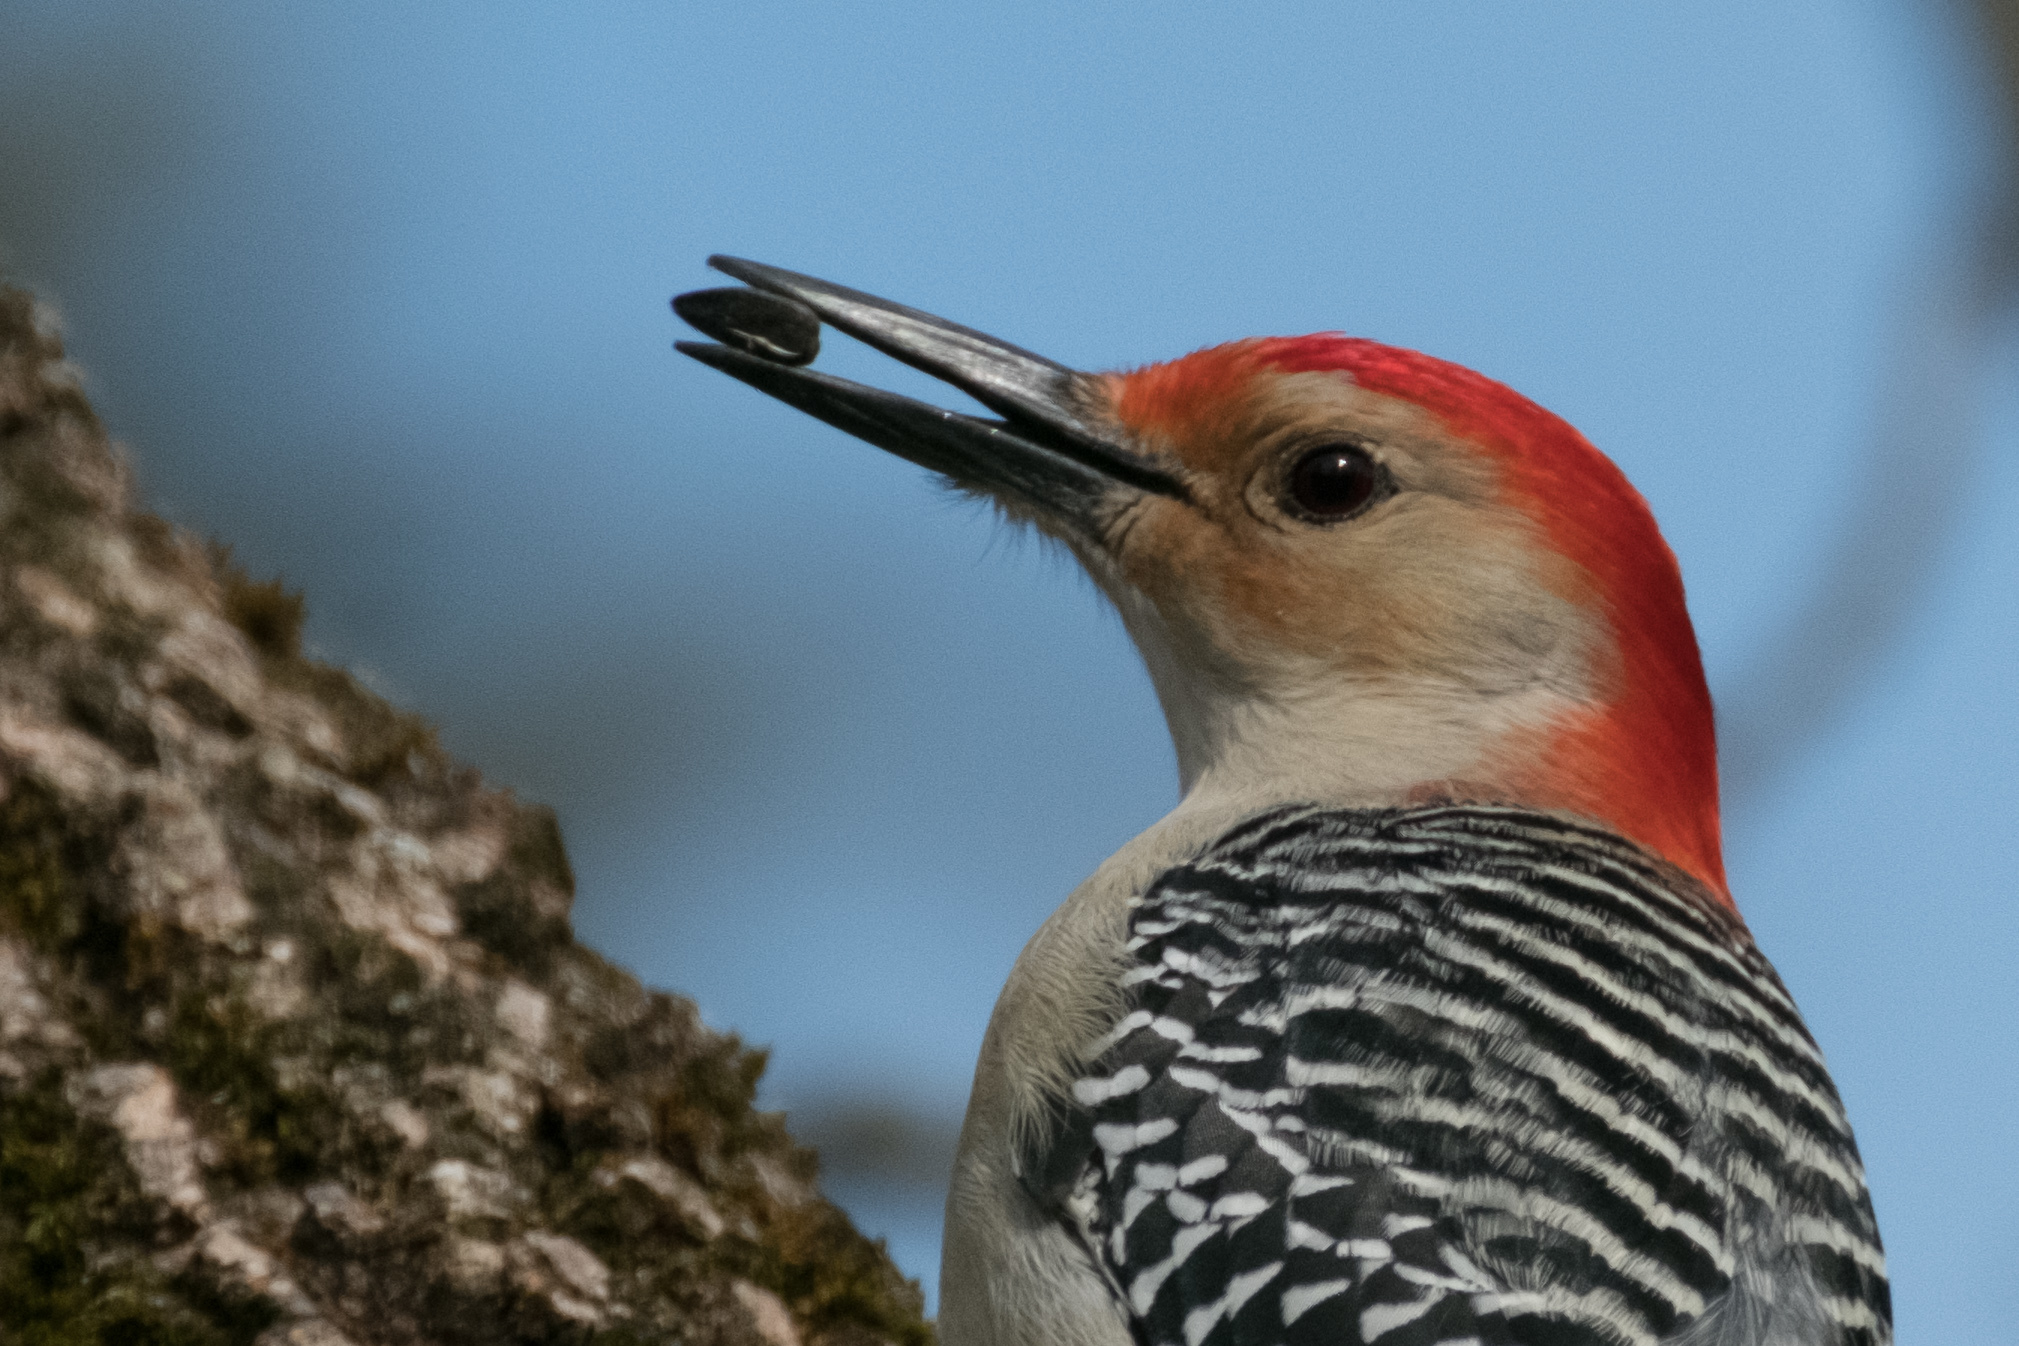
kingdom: Animalia
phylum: Chordata
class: Aves
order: Piciformes
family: Picidae
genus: Melanerpes
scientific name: Melanerpes carolinus
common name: Red-bellied woodpecker
